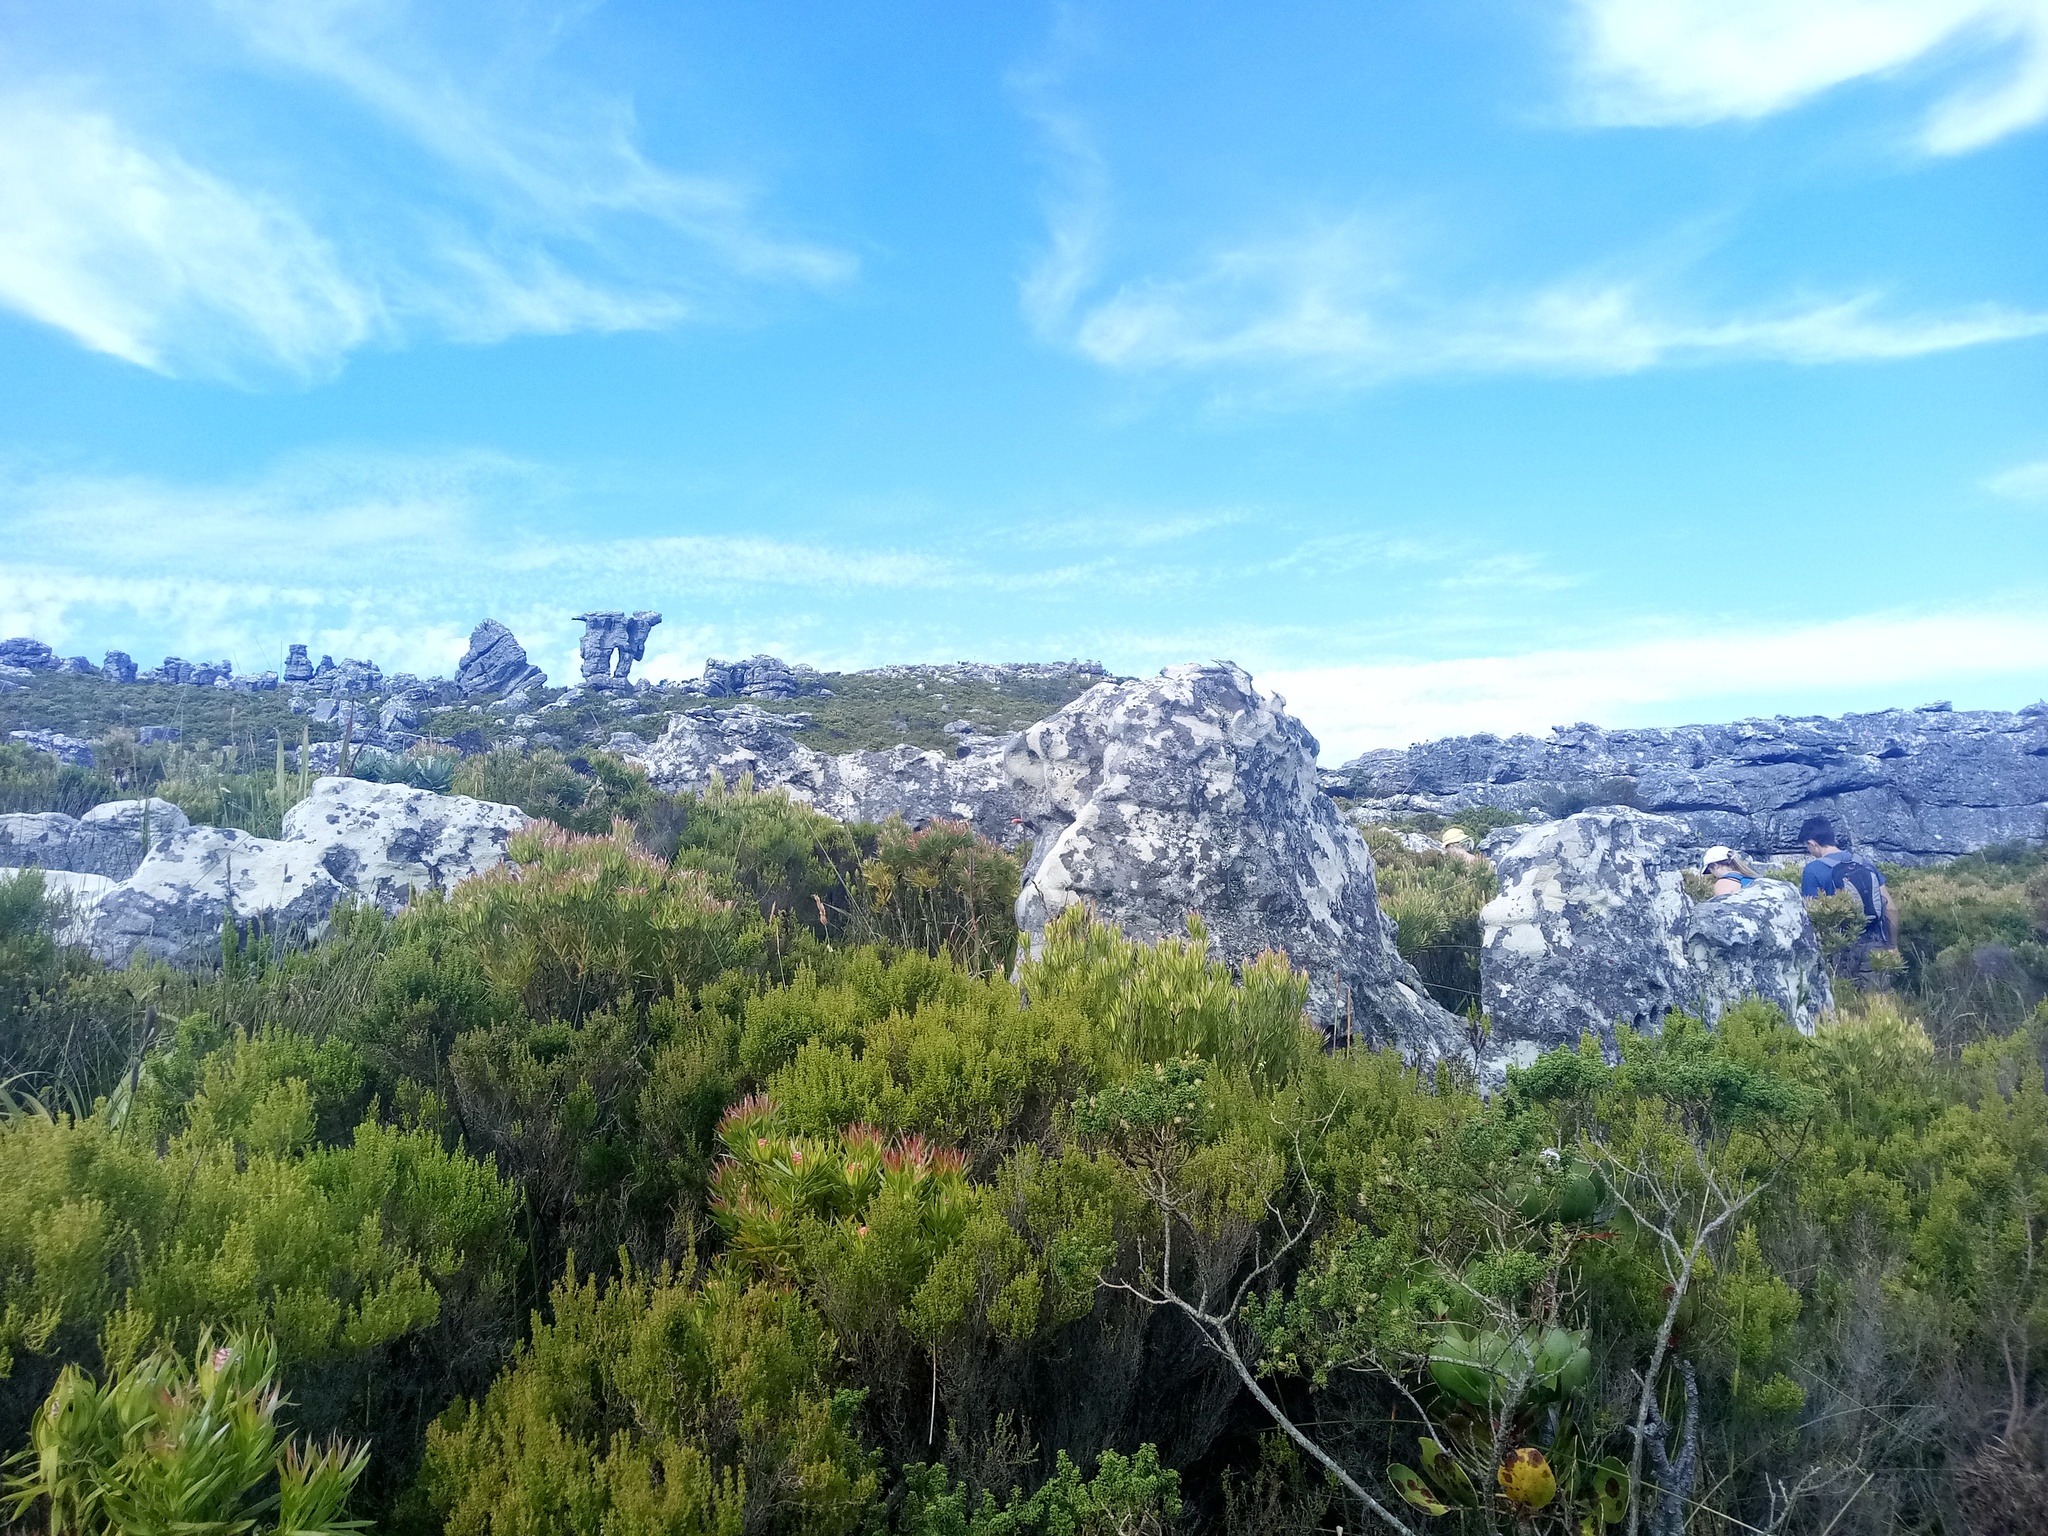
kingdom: Plantae
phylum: Tracheophyta
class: Magnoliopsida
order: Proteales
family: Proteaceae
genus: Protea
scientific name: Protea cynaroides
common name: King protea
